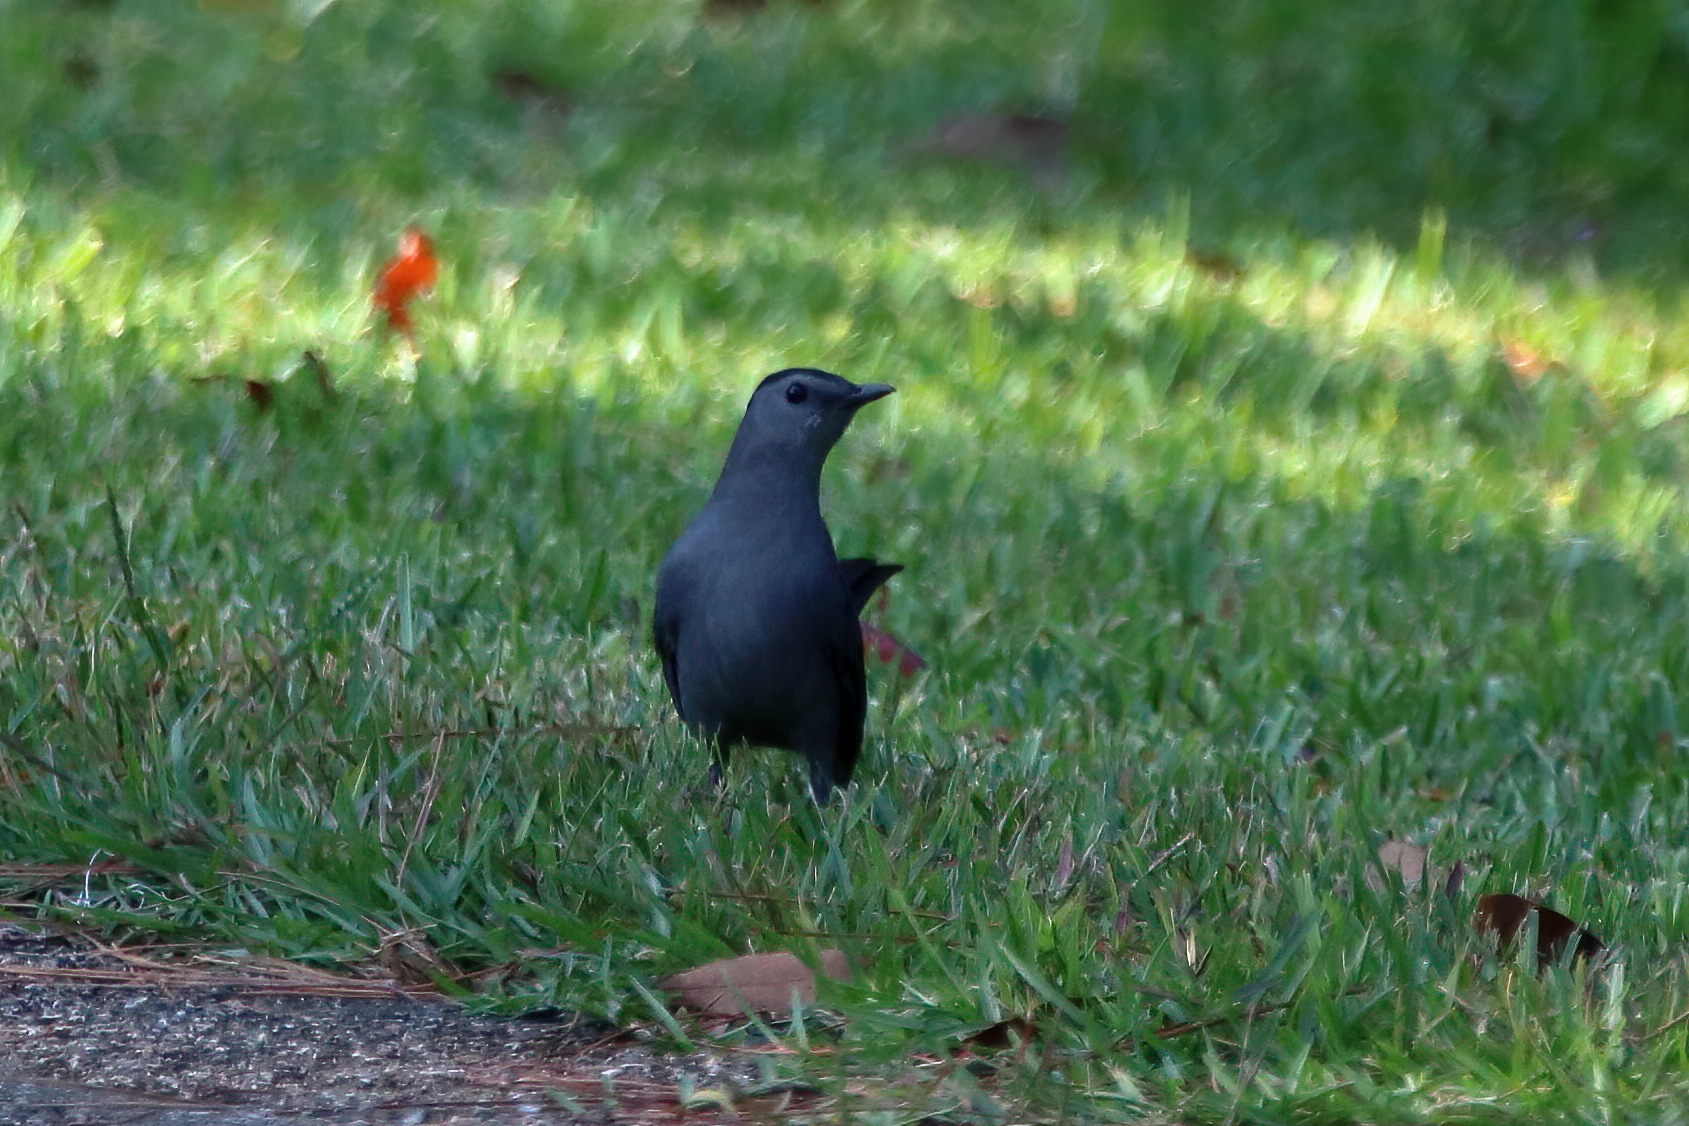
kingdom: Animalia
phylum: Chordata
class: Aves
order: Passeriformes
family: Mimidae
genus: Dumetella
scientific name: Dumetella carolinensis
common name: Gray catbird
